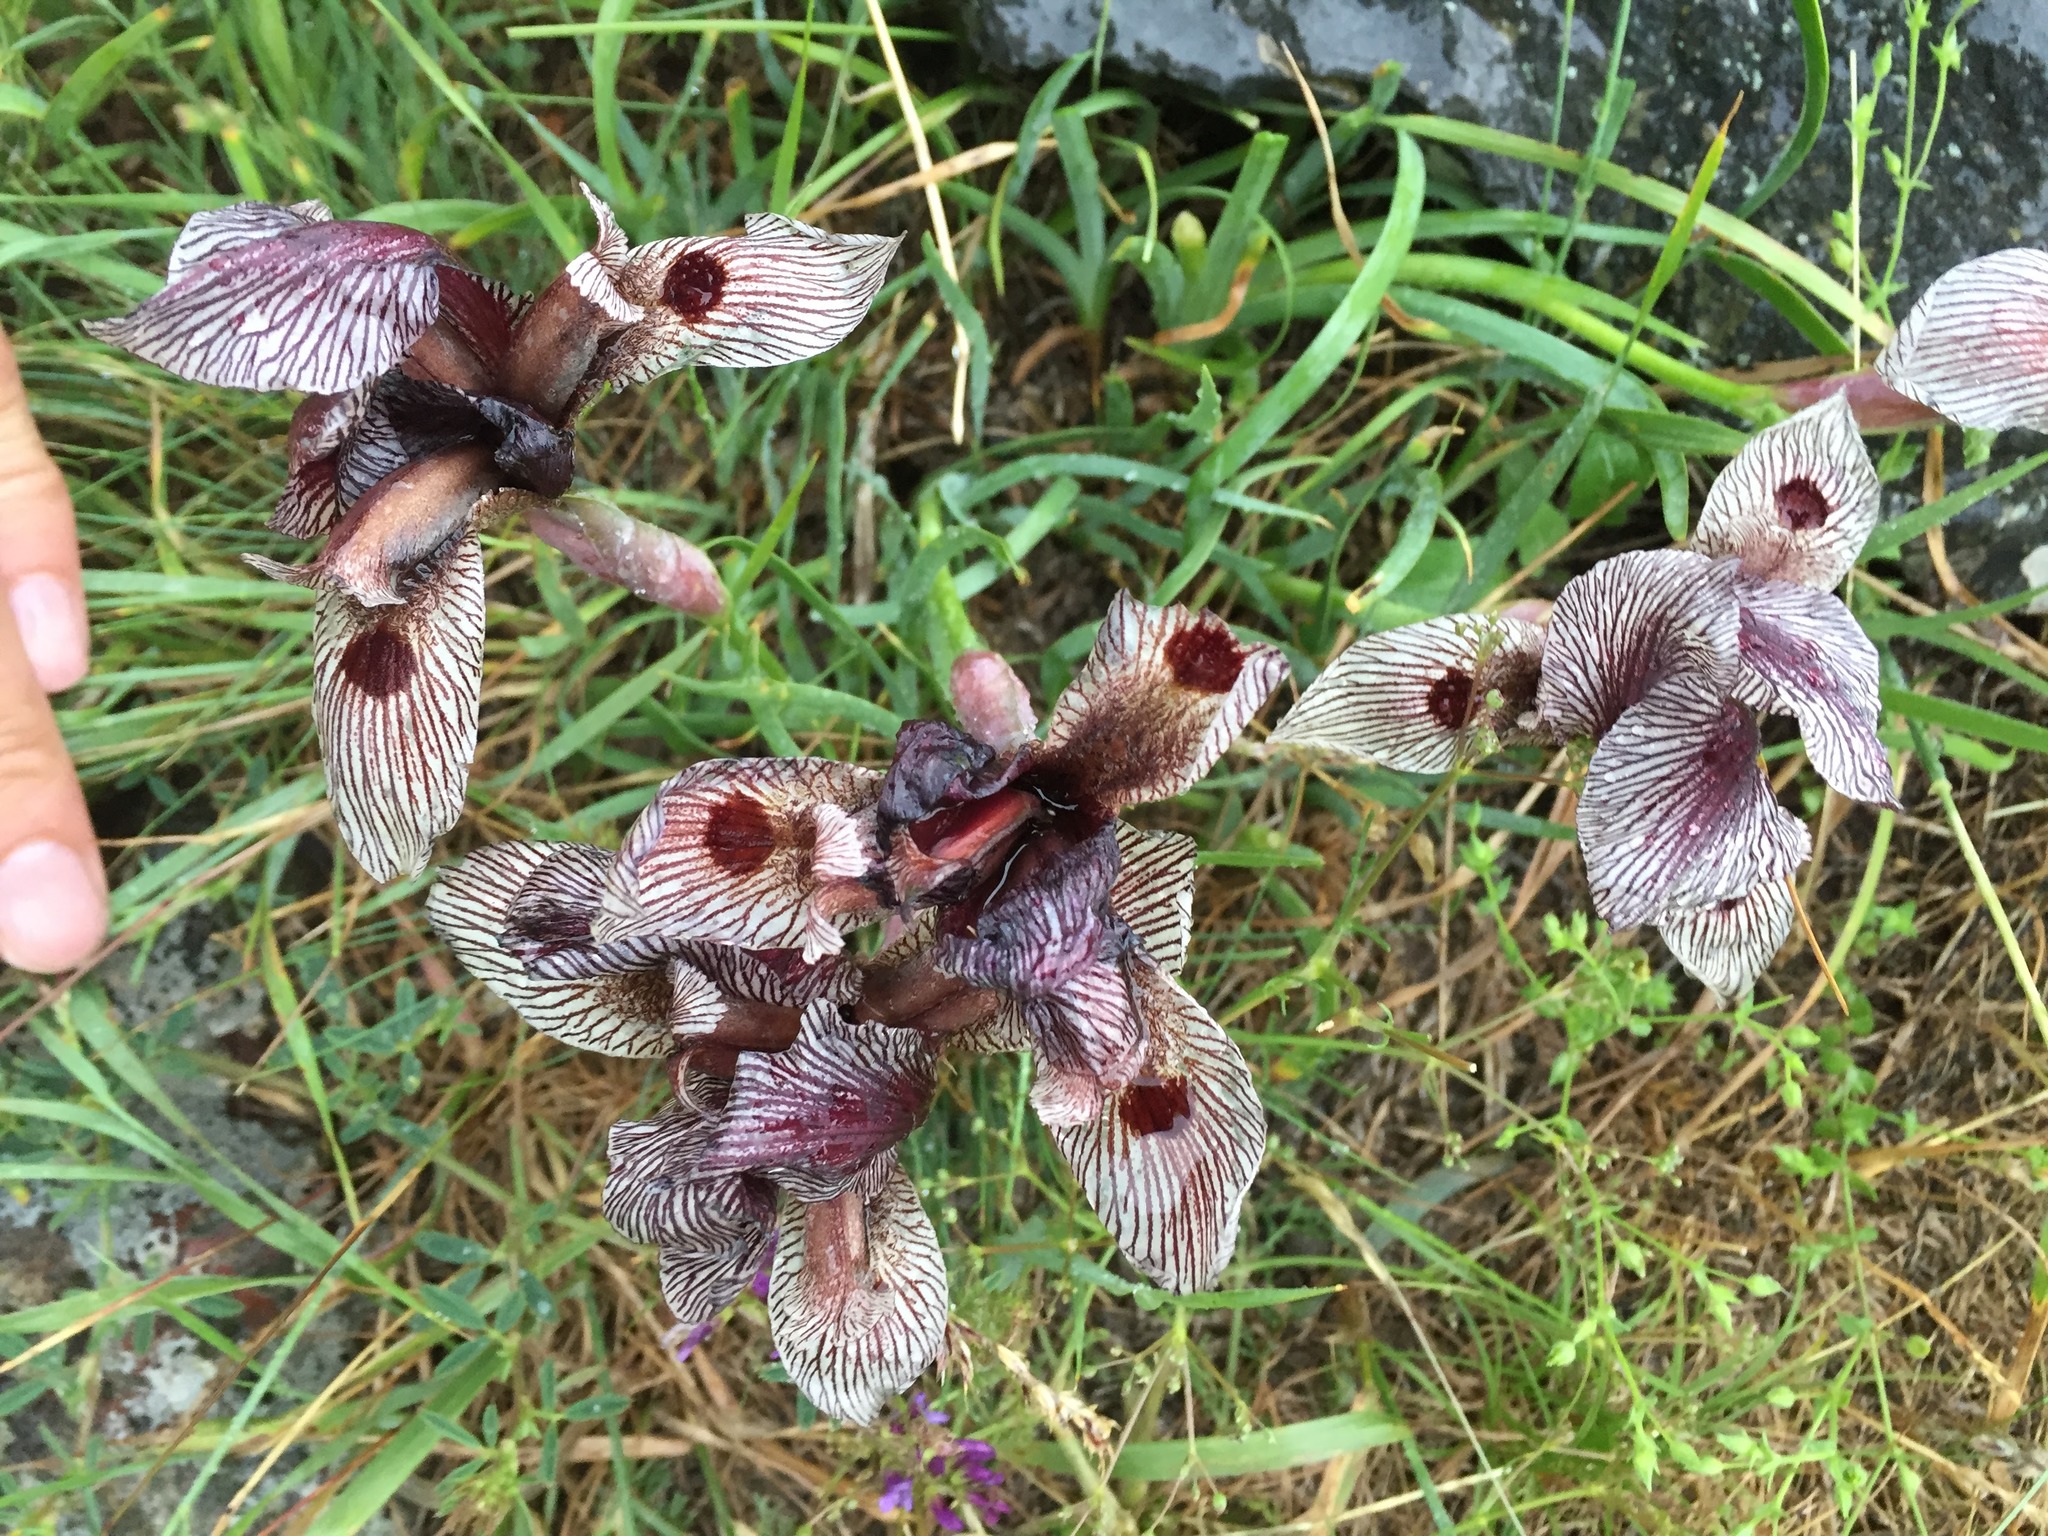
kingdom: Plantae
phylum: Tracheophyta
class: Liliopsida
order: Asparagales
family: Iridaceae
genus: Iris
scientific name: Iris acutiloba
